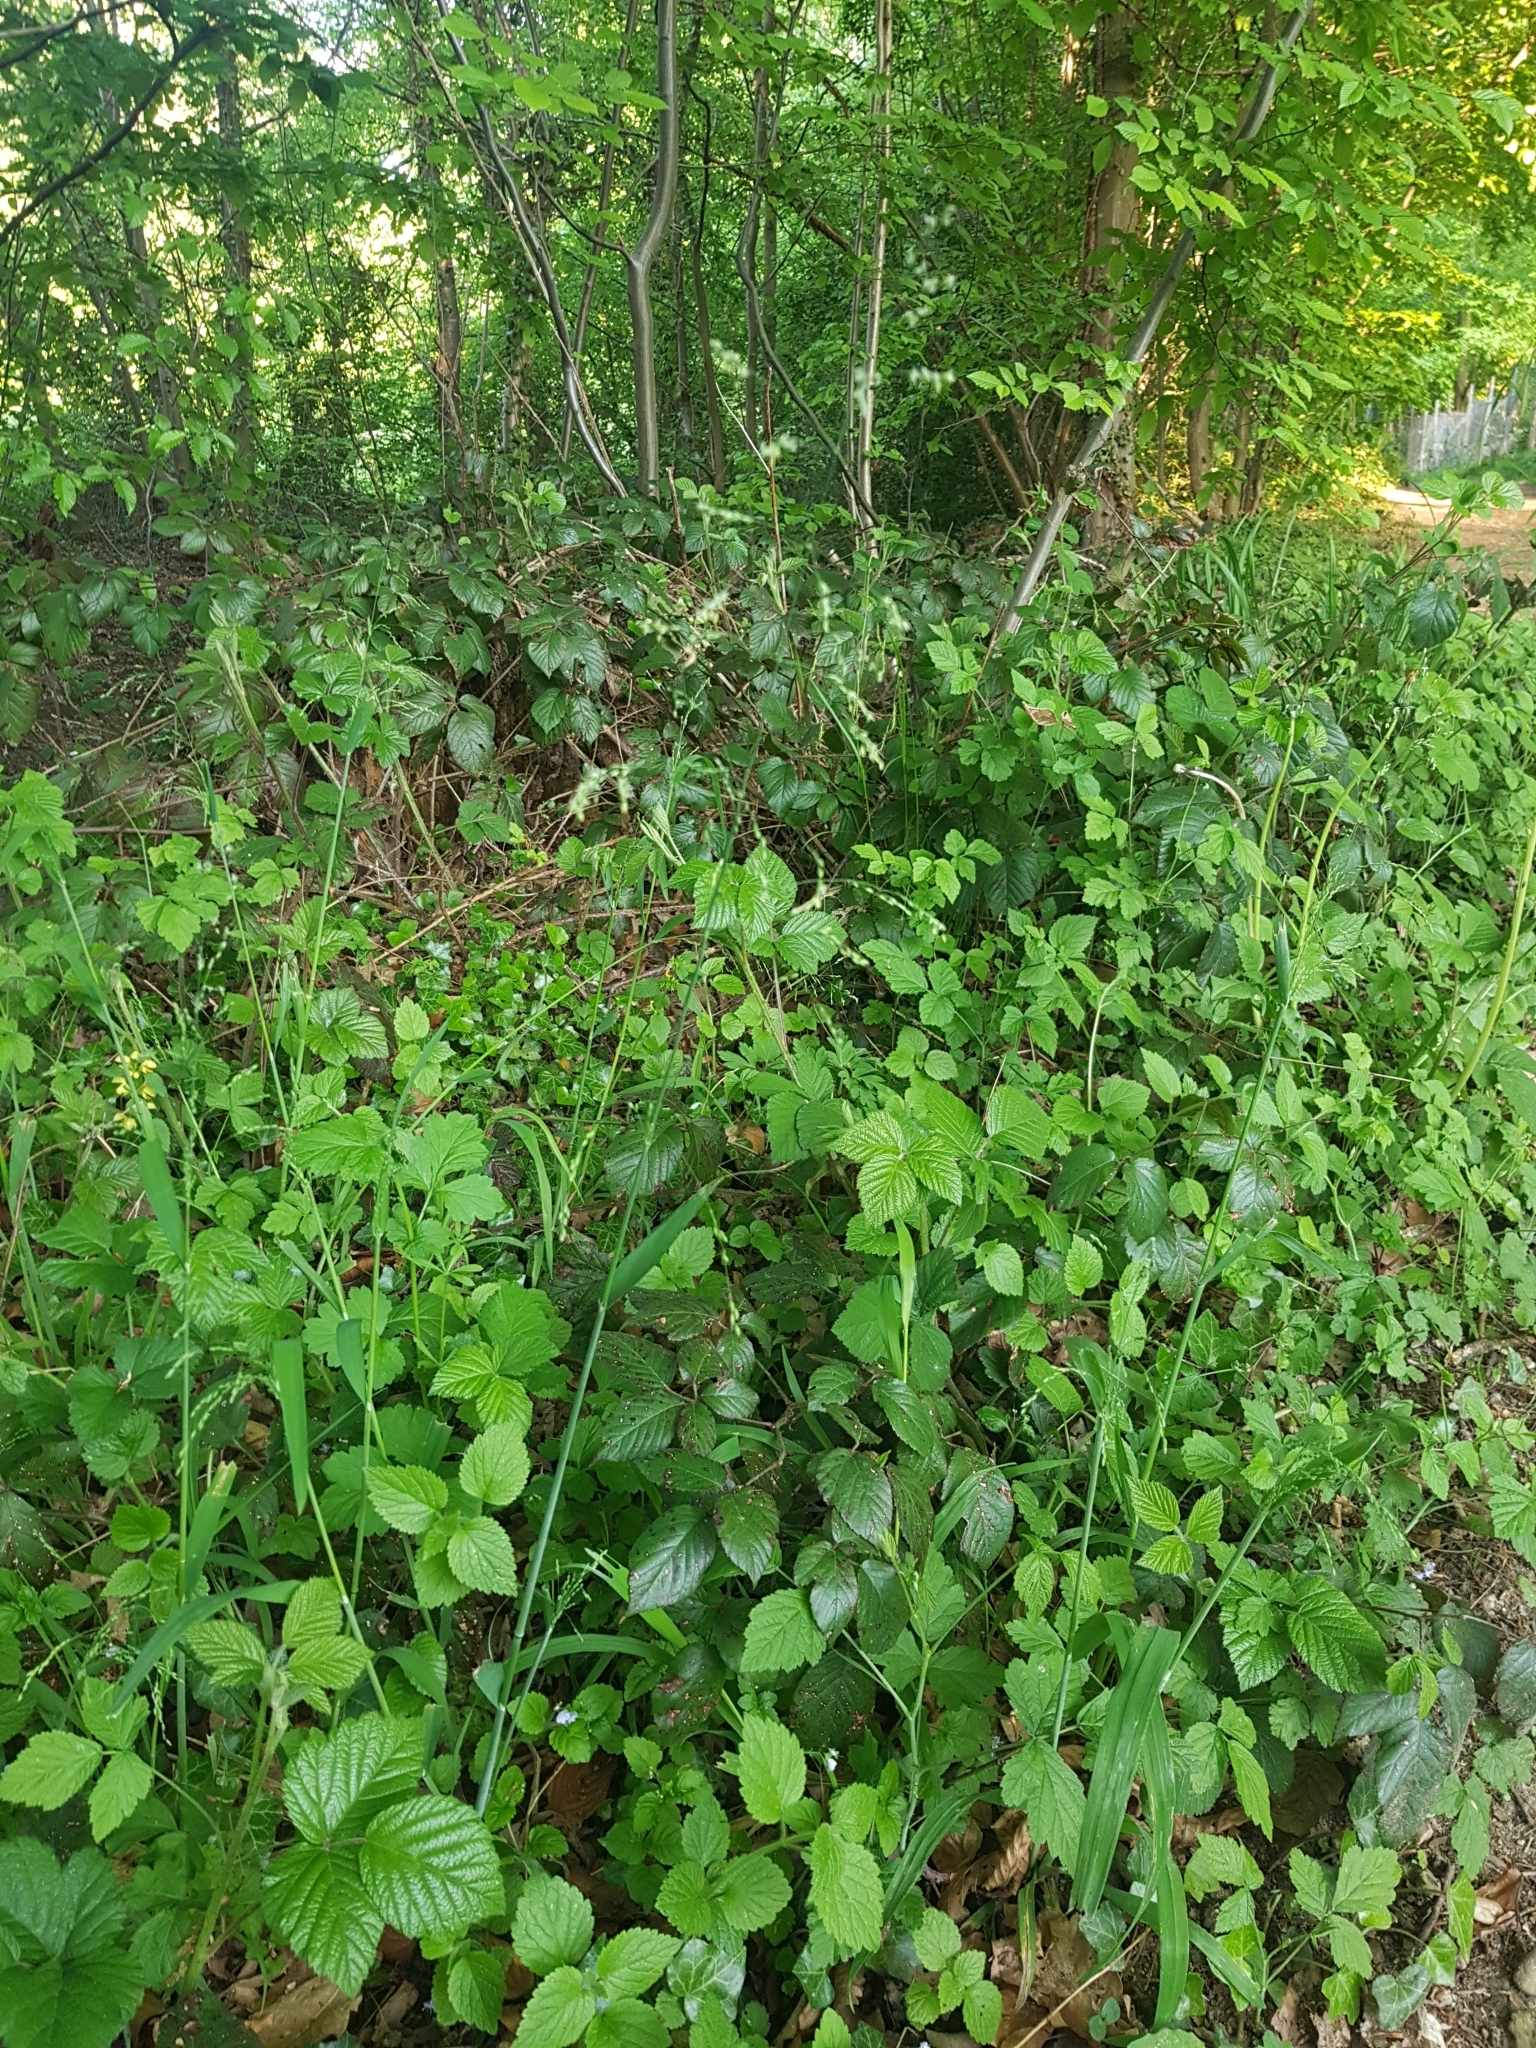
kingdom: Plantae
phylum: Tracheophyta
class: Liliopsida
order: Poales
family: Poaceae
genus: Milium
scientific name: Milium effusum
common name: Wood millet
